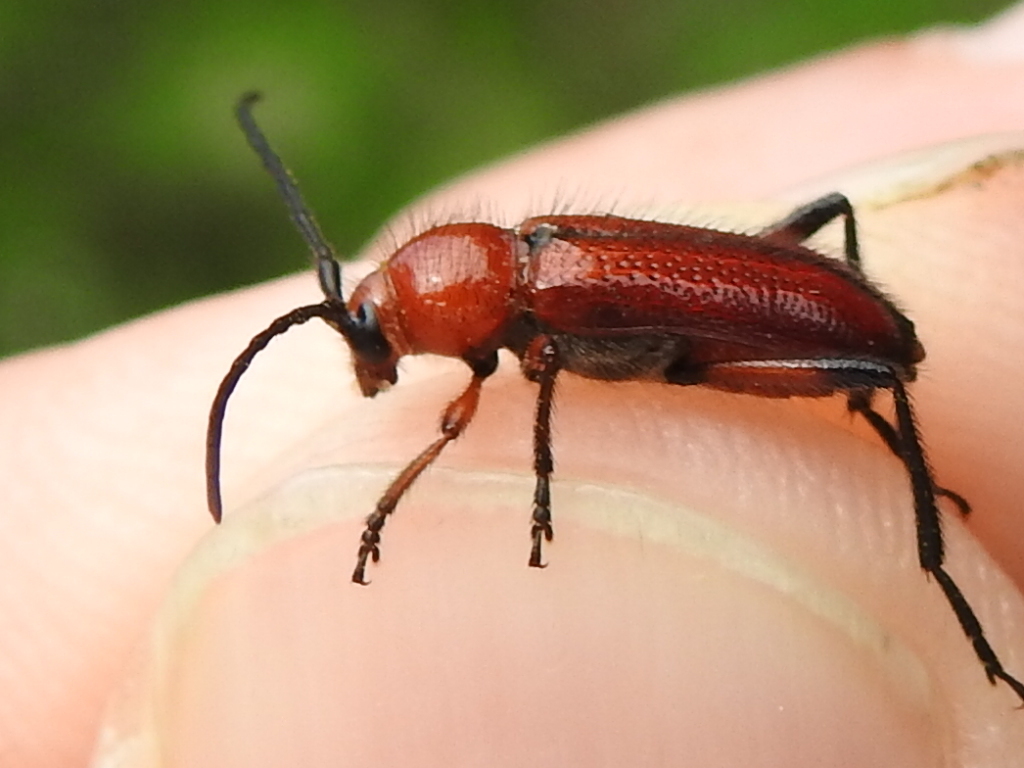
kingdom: Animalia
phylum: Arthropoda
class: Insecta
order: Coleoptera
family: Cerambycidae
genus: Batyle
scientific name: Batyle suturalis
